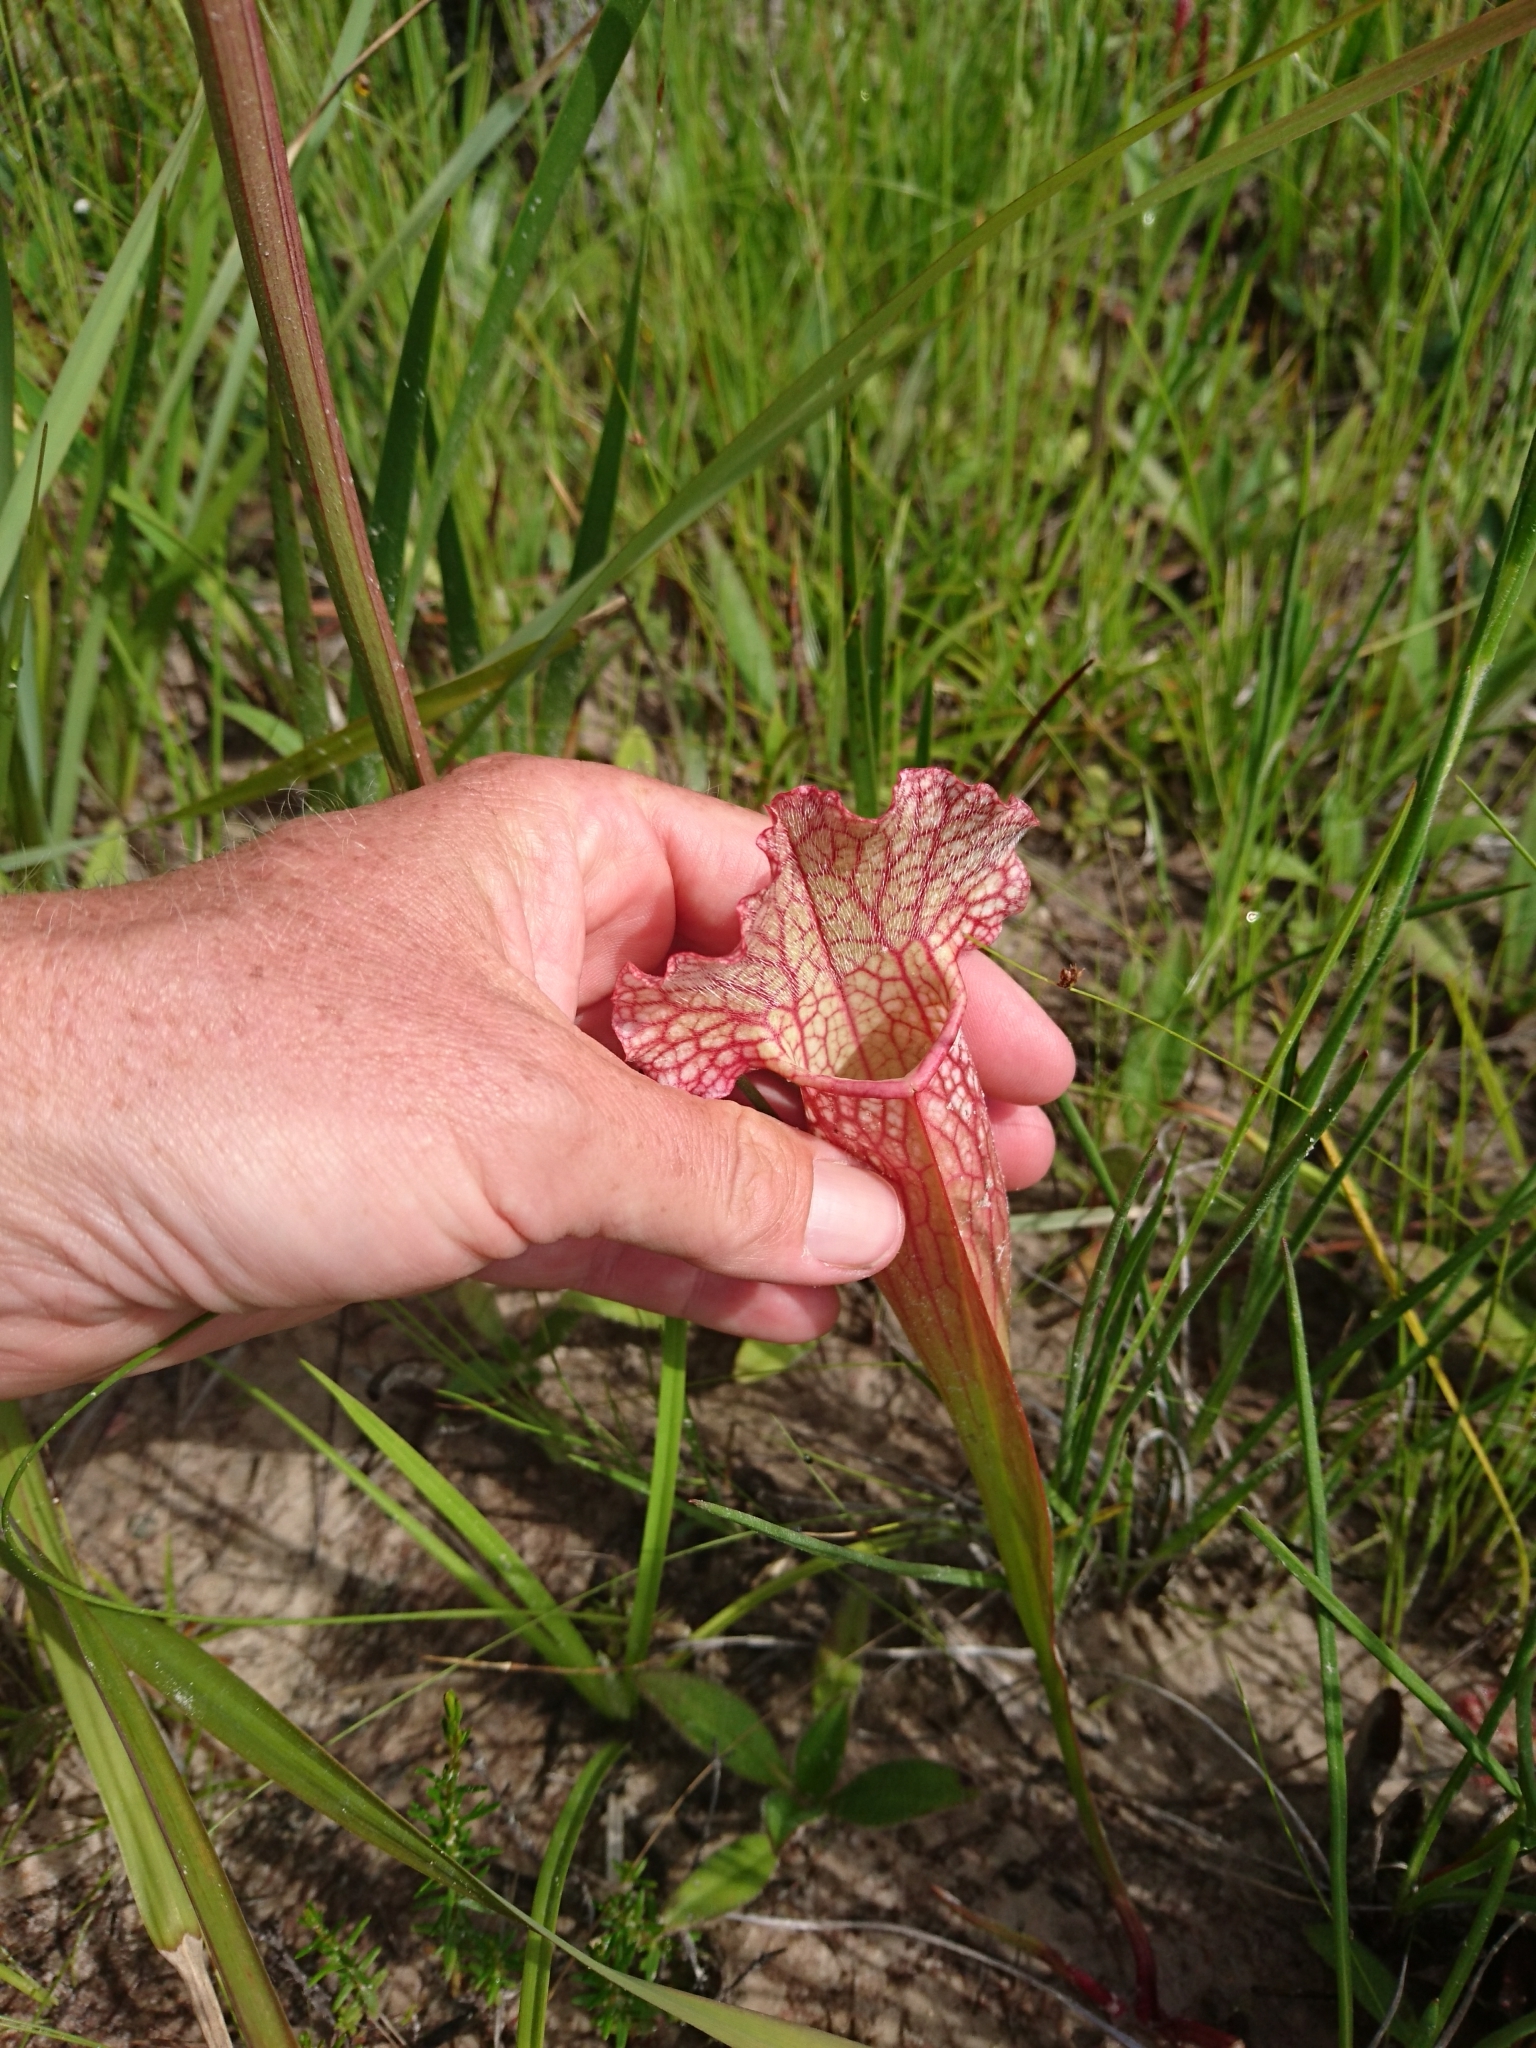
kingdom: Plantae
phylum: Tracheophyta
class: Magnoliopsida
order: Ericales
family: Sarraceniaceae
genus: Sarracenia
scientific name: Sarracenia mitchelliana
